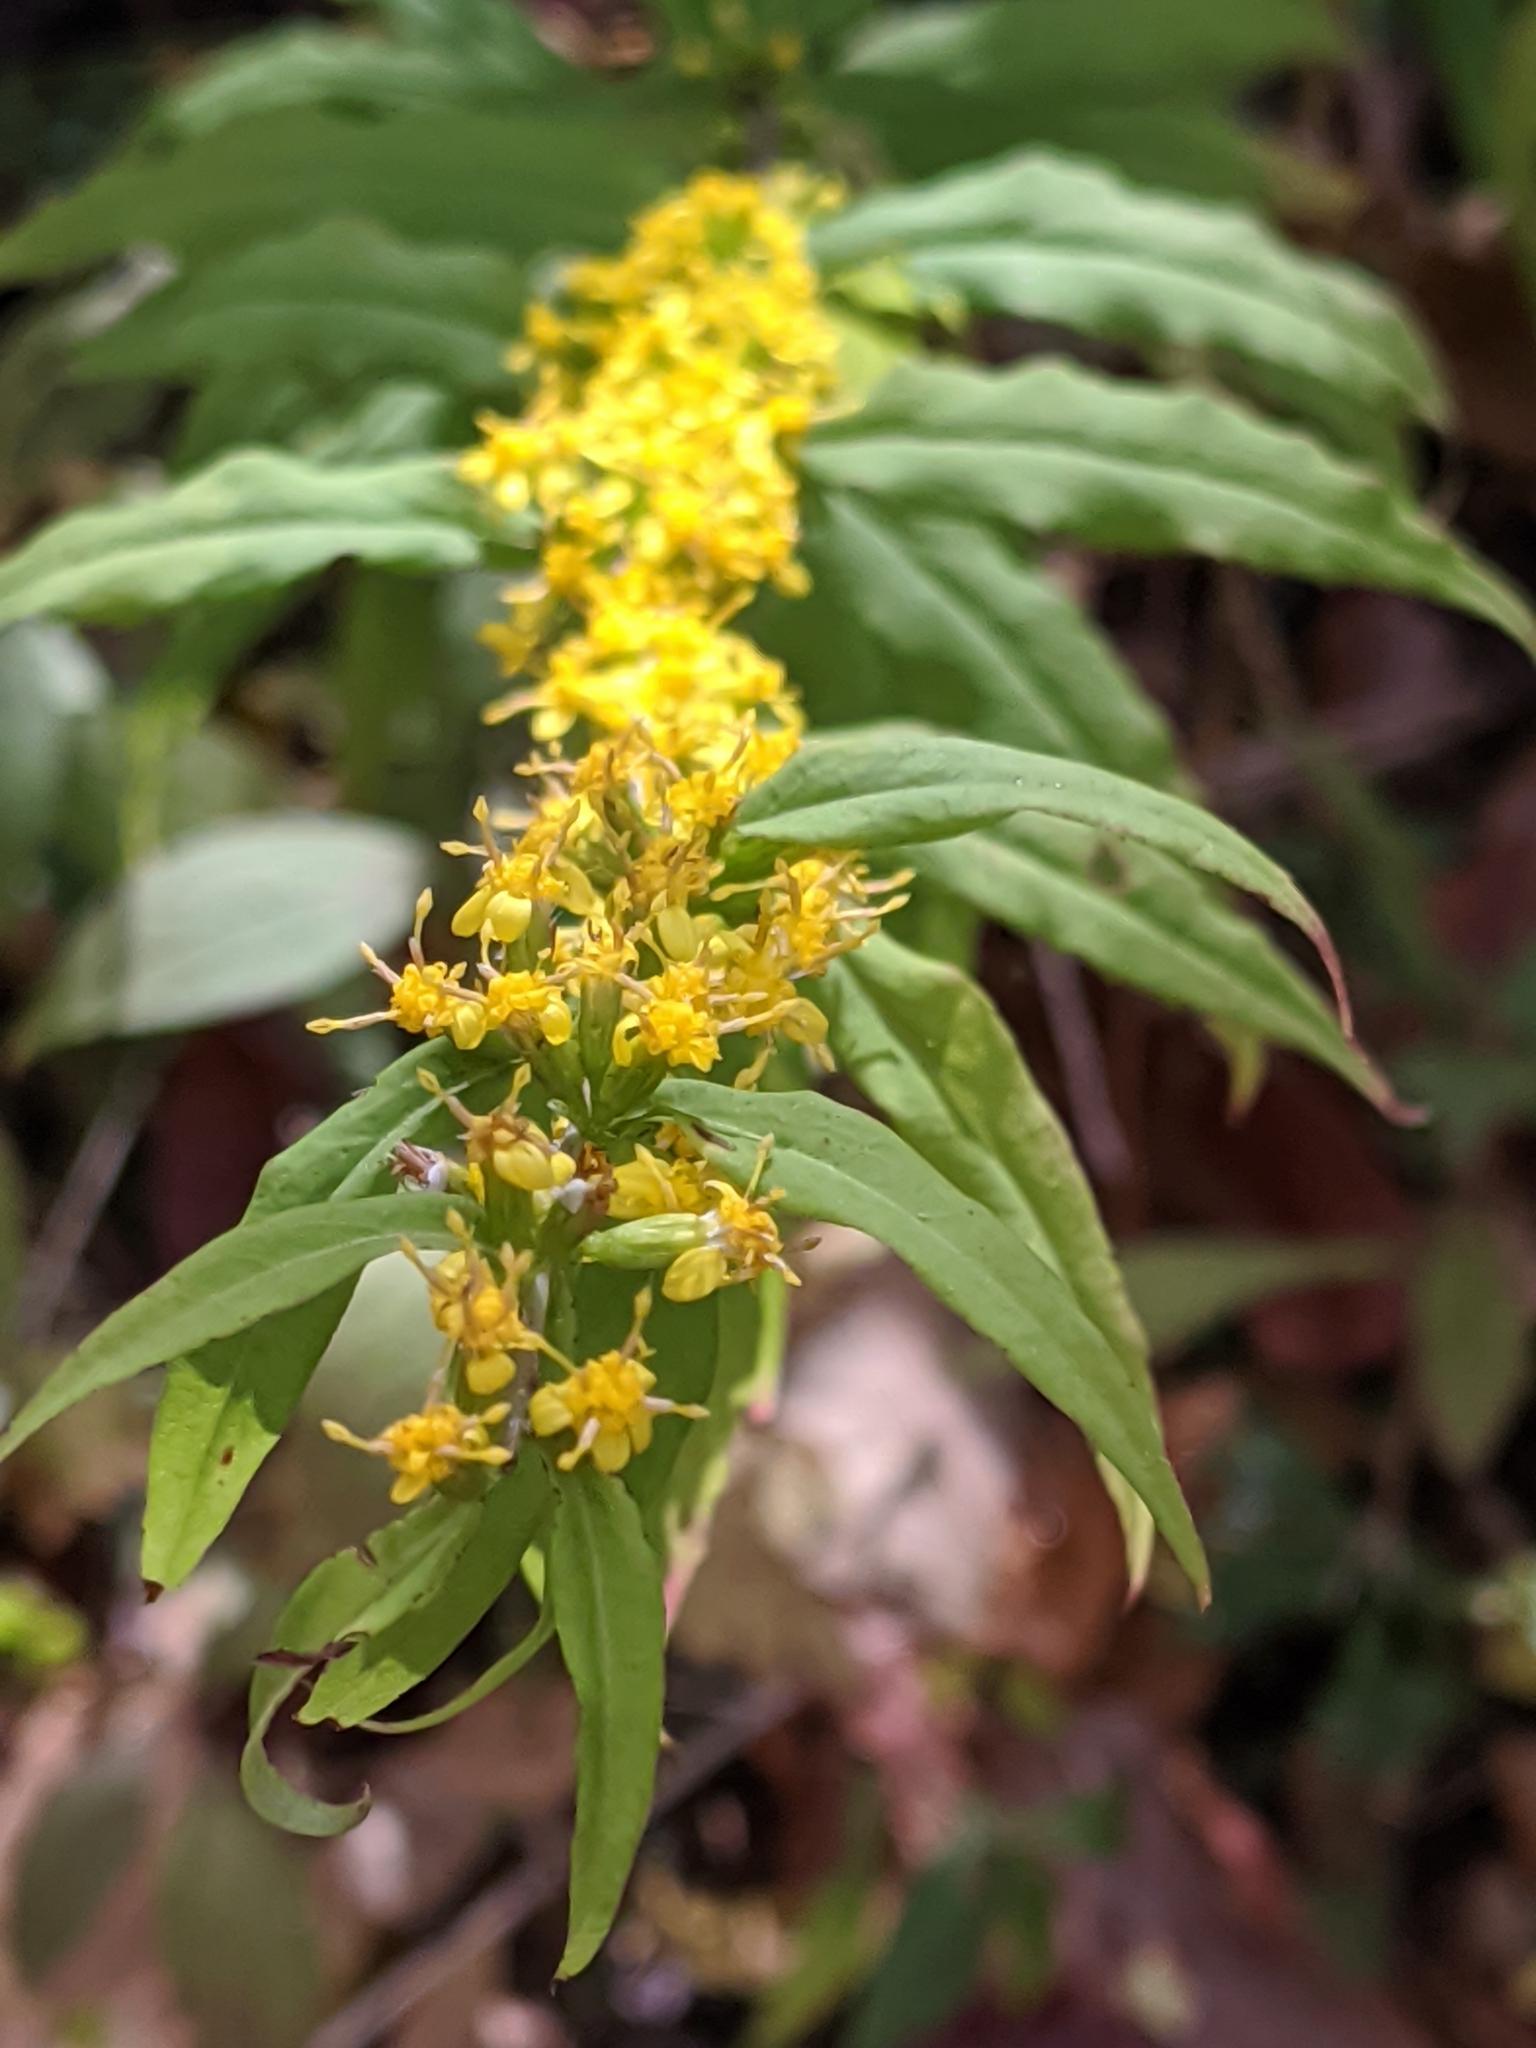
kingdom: Plantae
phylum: Tracheophyta
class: Magnoliopsida
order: Asterales
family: Asteraceae
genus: Solidago
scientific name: Solidago caesia
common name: Woodland goldenrod
